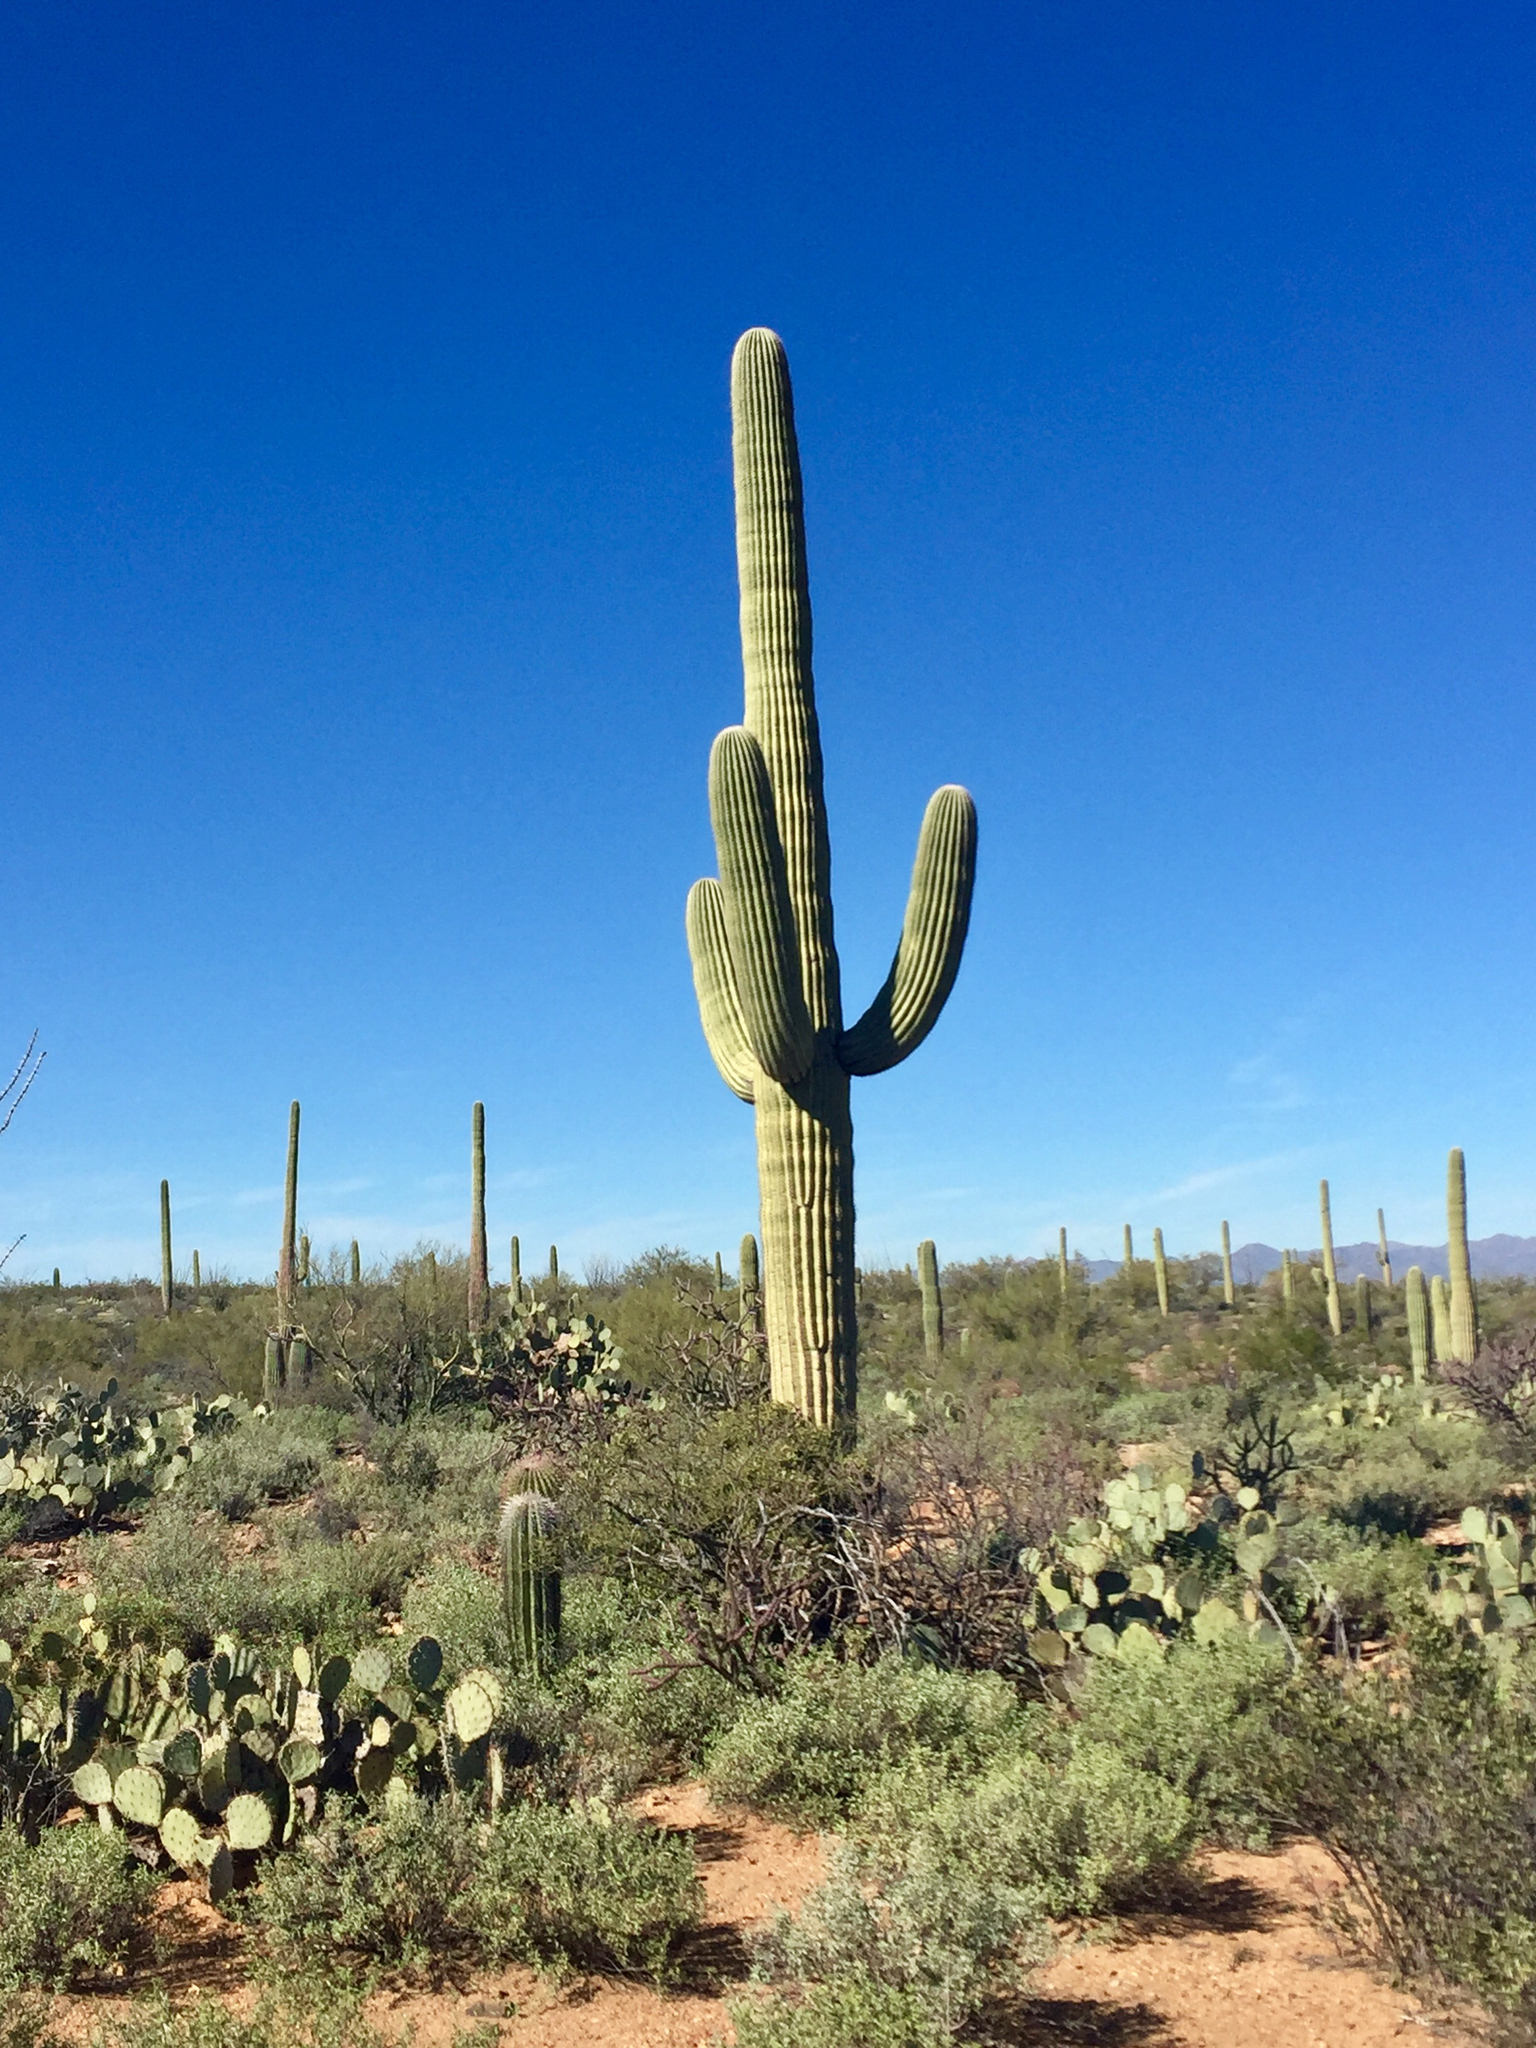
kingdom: Plantae
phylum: Tracheophyta
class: Magnoliopsida
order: Caryophyllales
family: Cactaceae
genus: Carnegiea
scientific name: Carnegiea gigantea
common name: Saguaro
